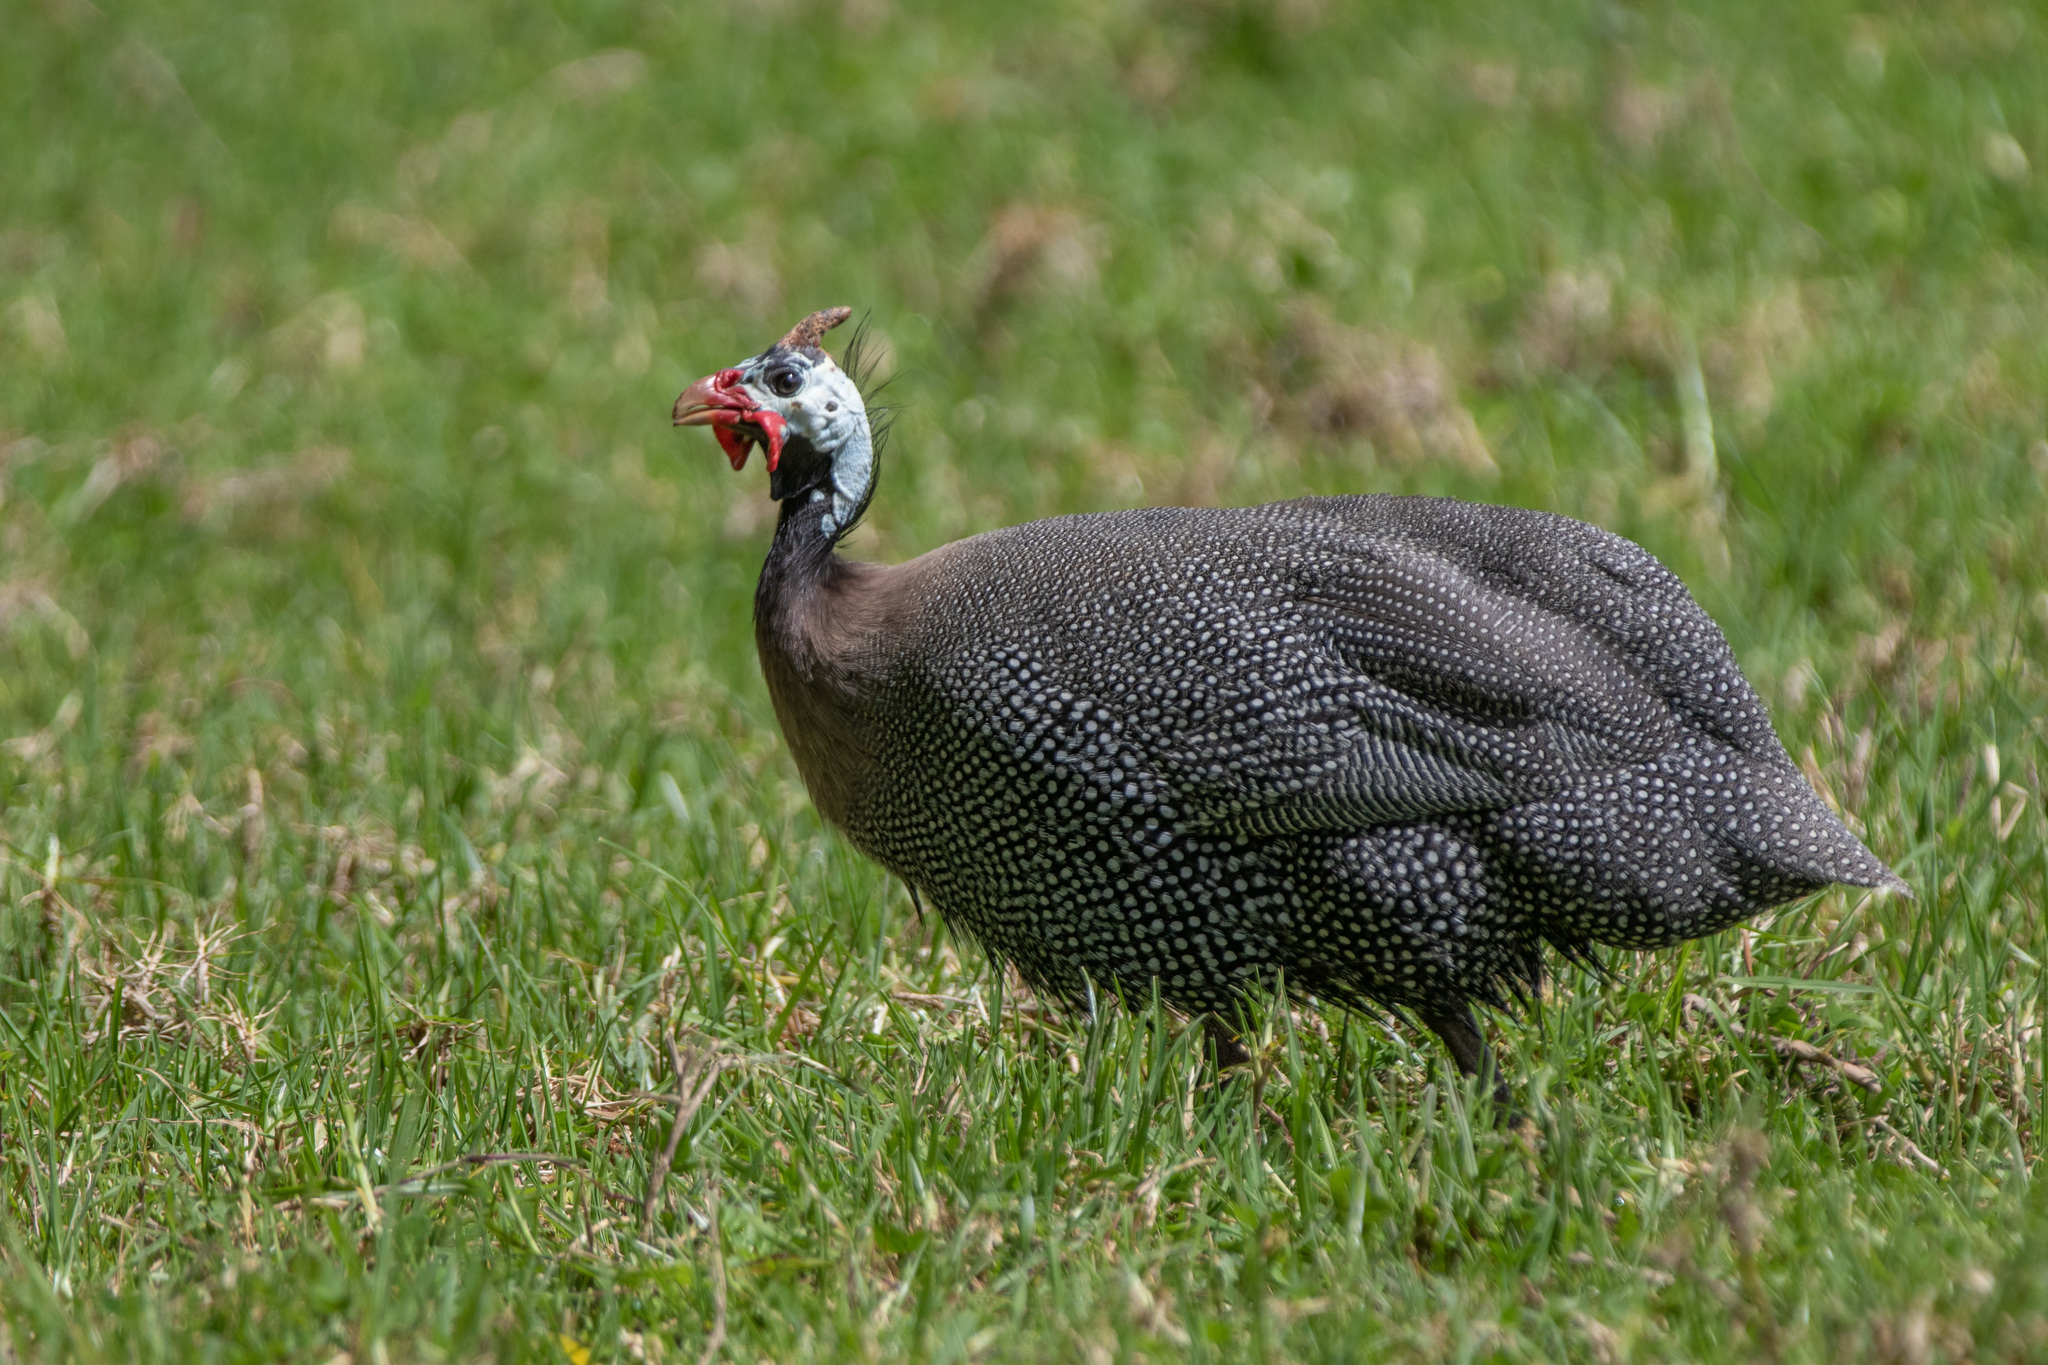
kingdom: Animalia
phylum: Chordata
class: Aves
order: Galliformes
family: Numididae
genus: Numida
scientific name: Numida meleagris
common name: Helmeted guineafowl
